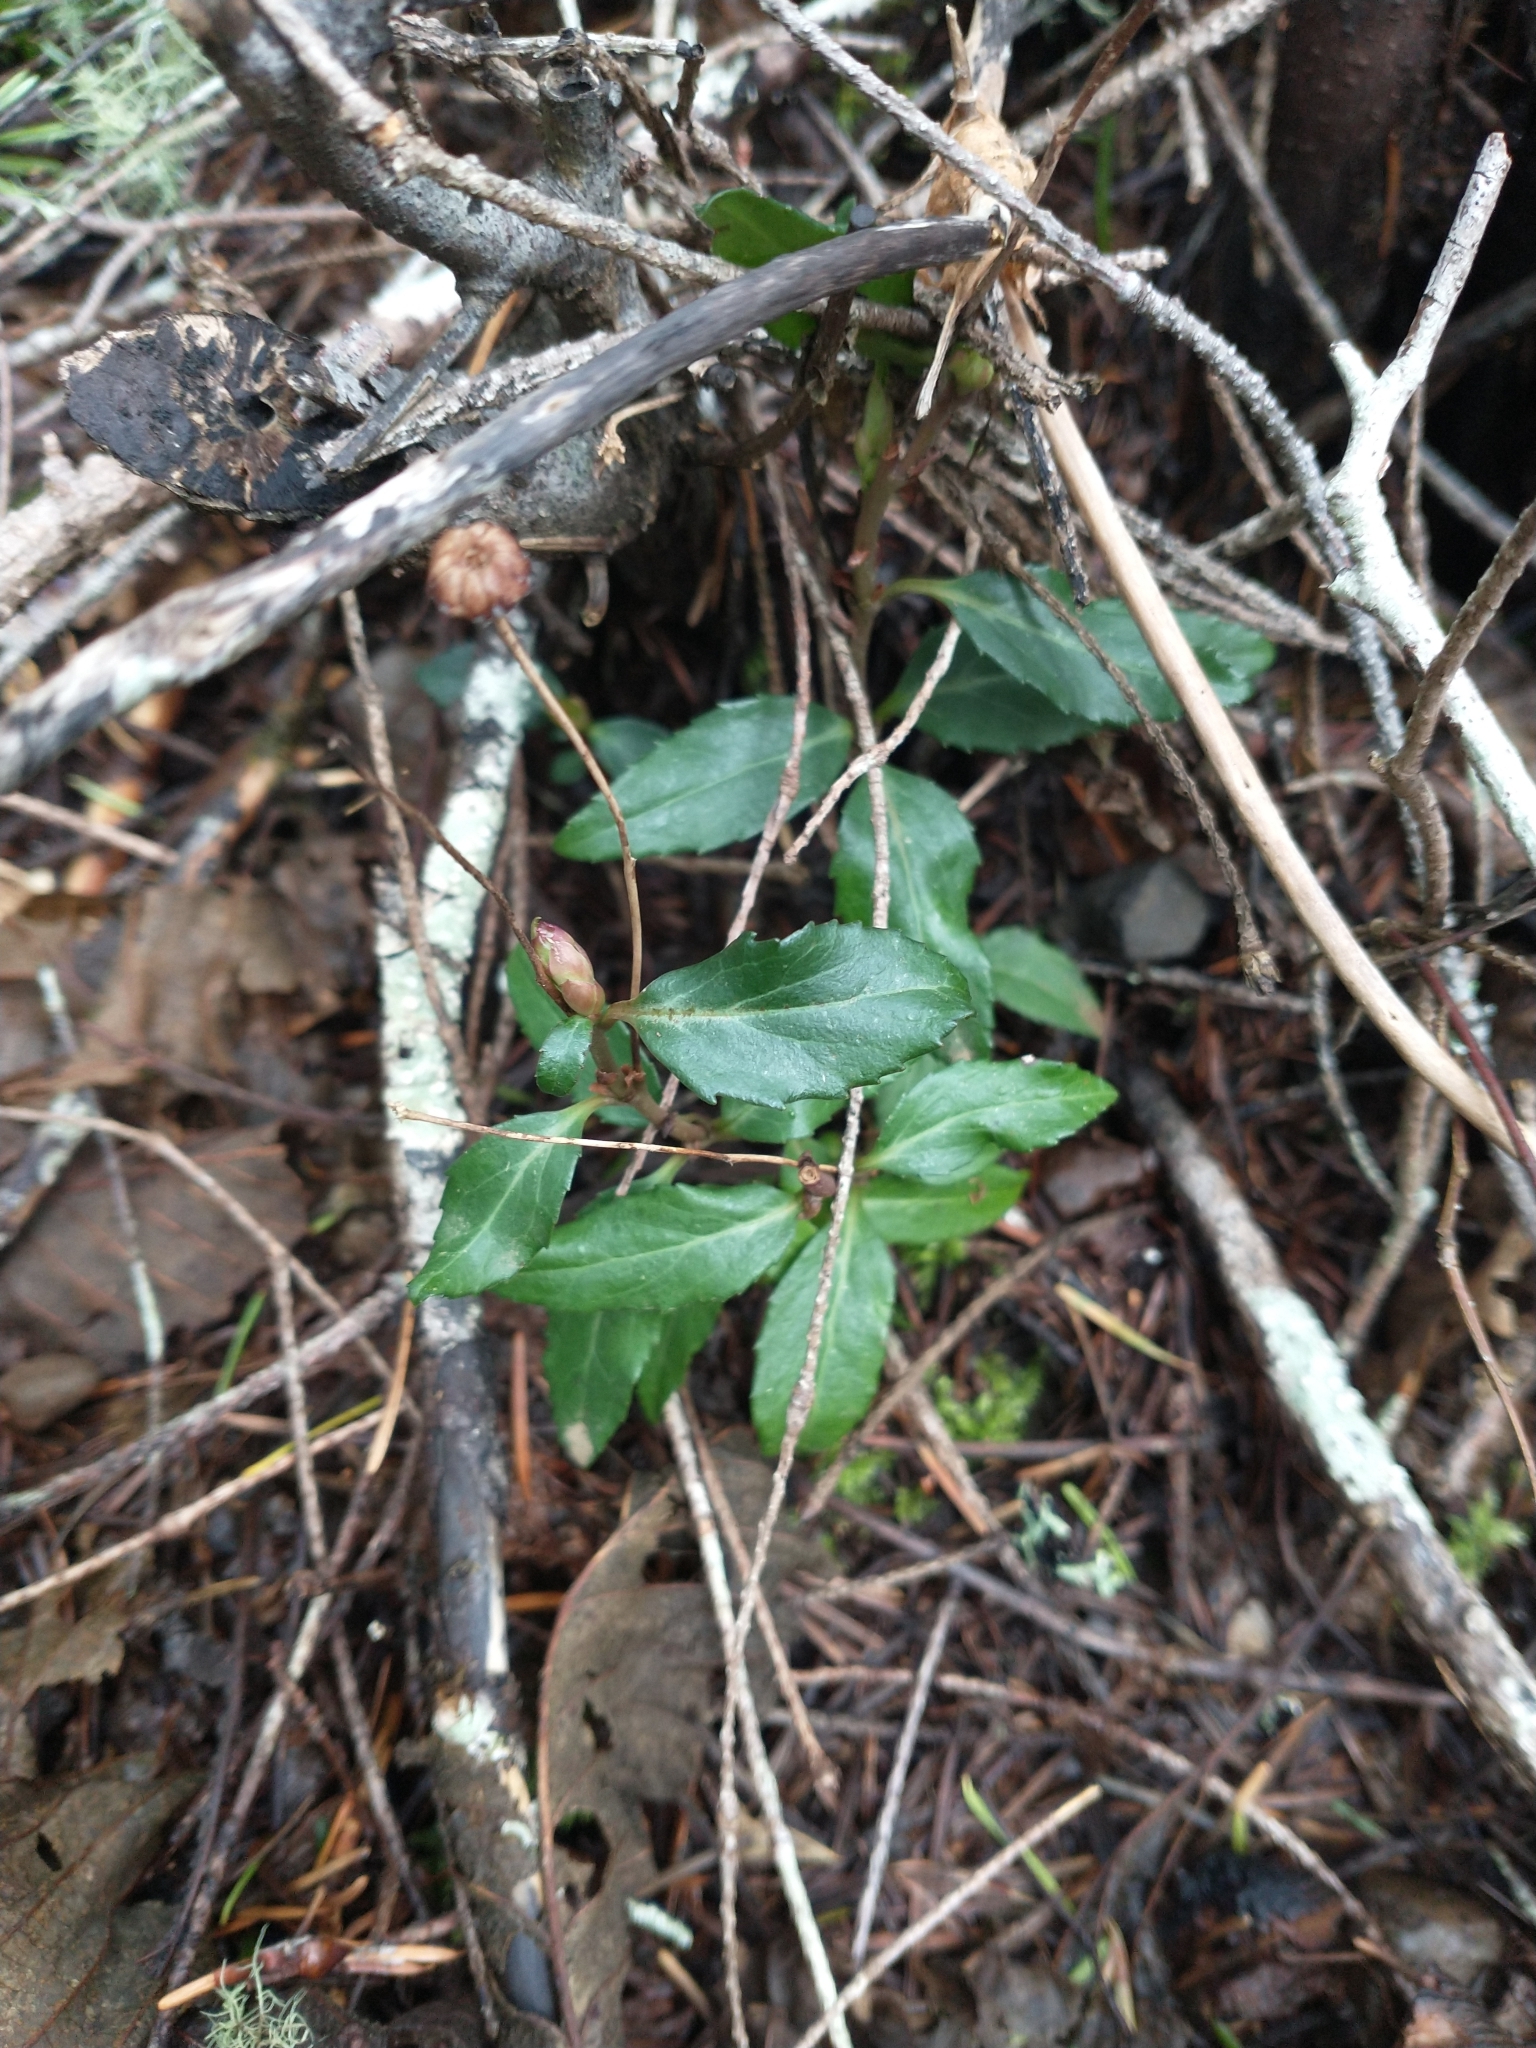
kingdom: Plantae
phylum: Tracheophyta
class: Magnoliopsida
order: Ericales
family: Ericaceae
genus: Chimaphila
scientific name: Chimaphila menziesii
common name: Menzies' pipsissewa
